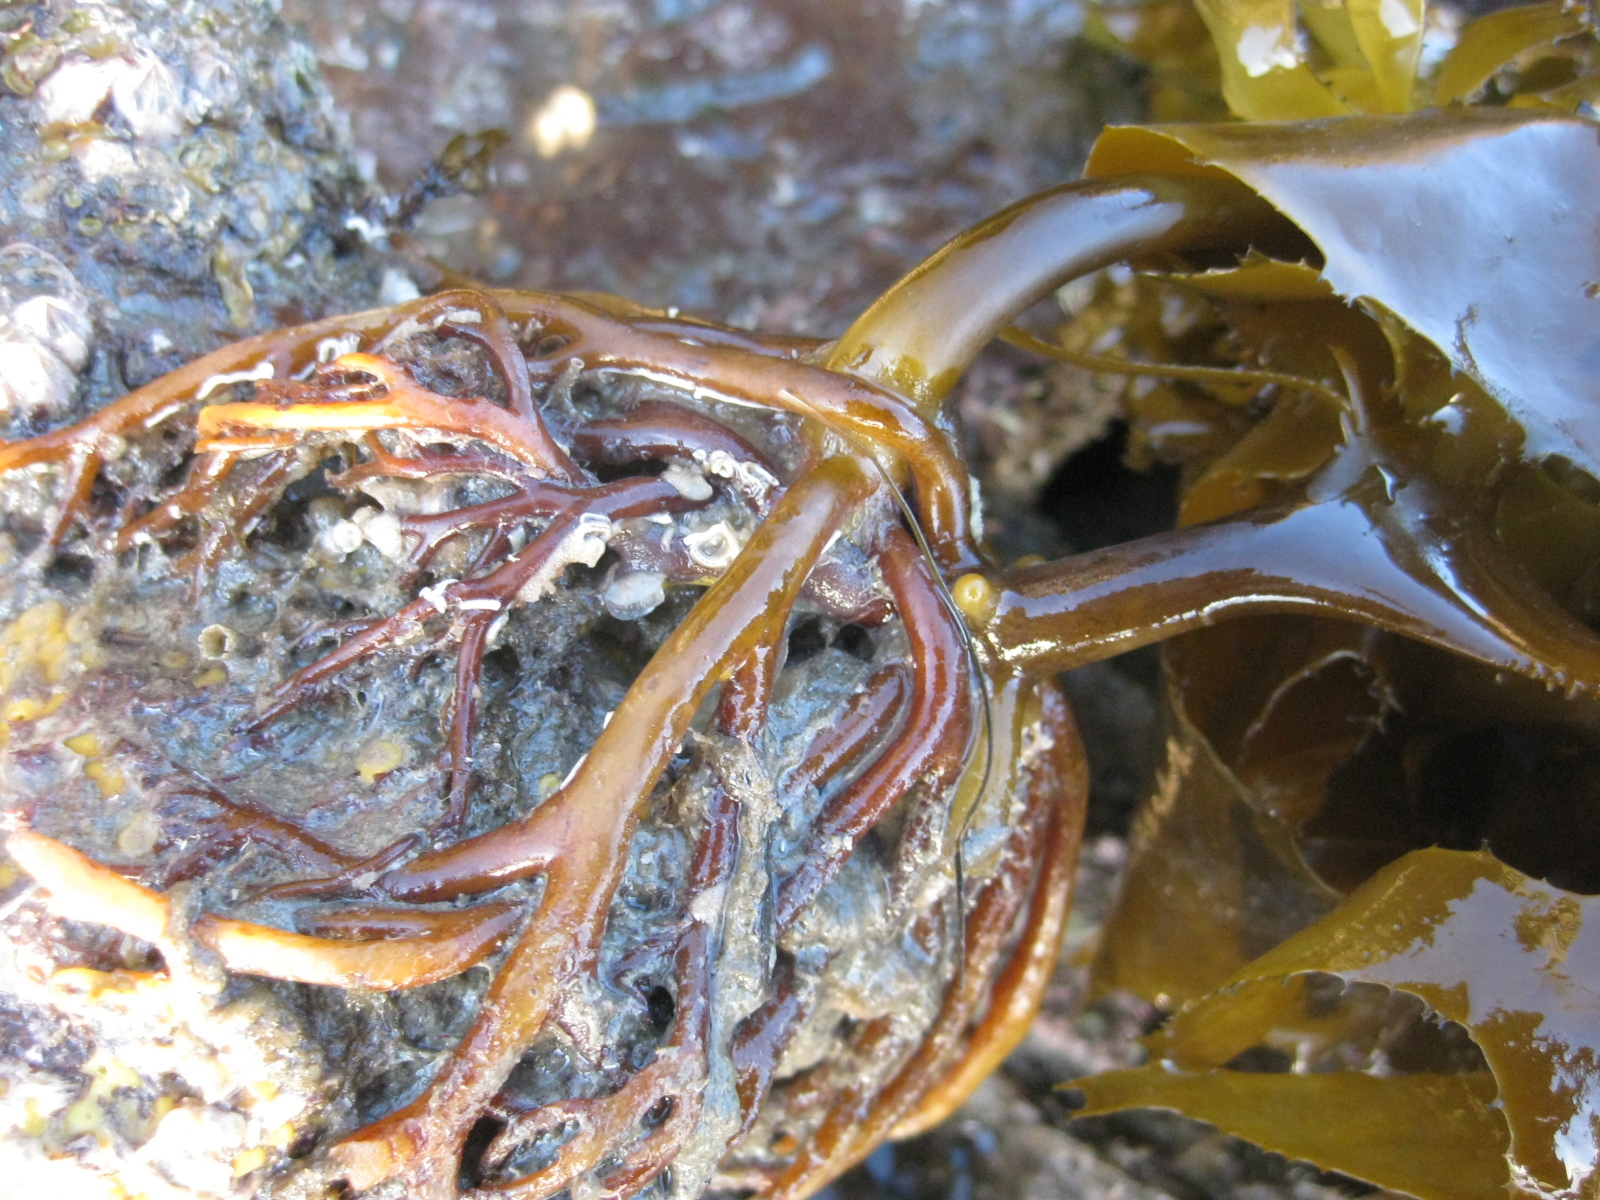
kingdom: Chromista
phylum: Ochrophyta
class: Phaeophyceae
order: Laminariales
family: Lessoniaceae
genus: Ecklonia
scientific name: Ecklonia radiata
